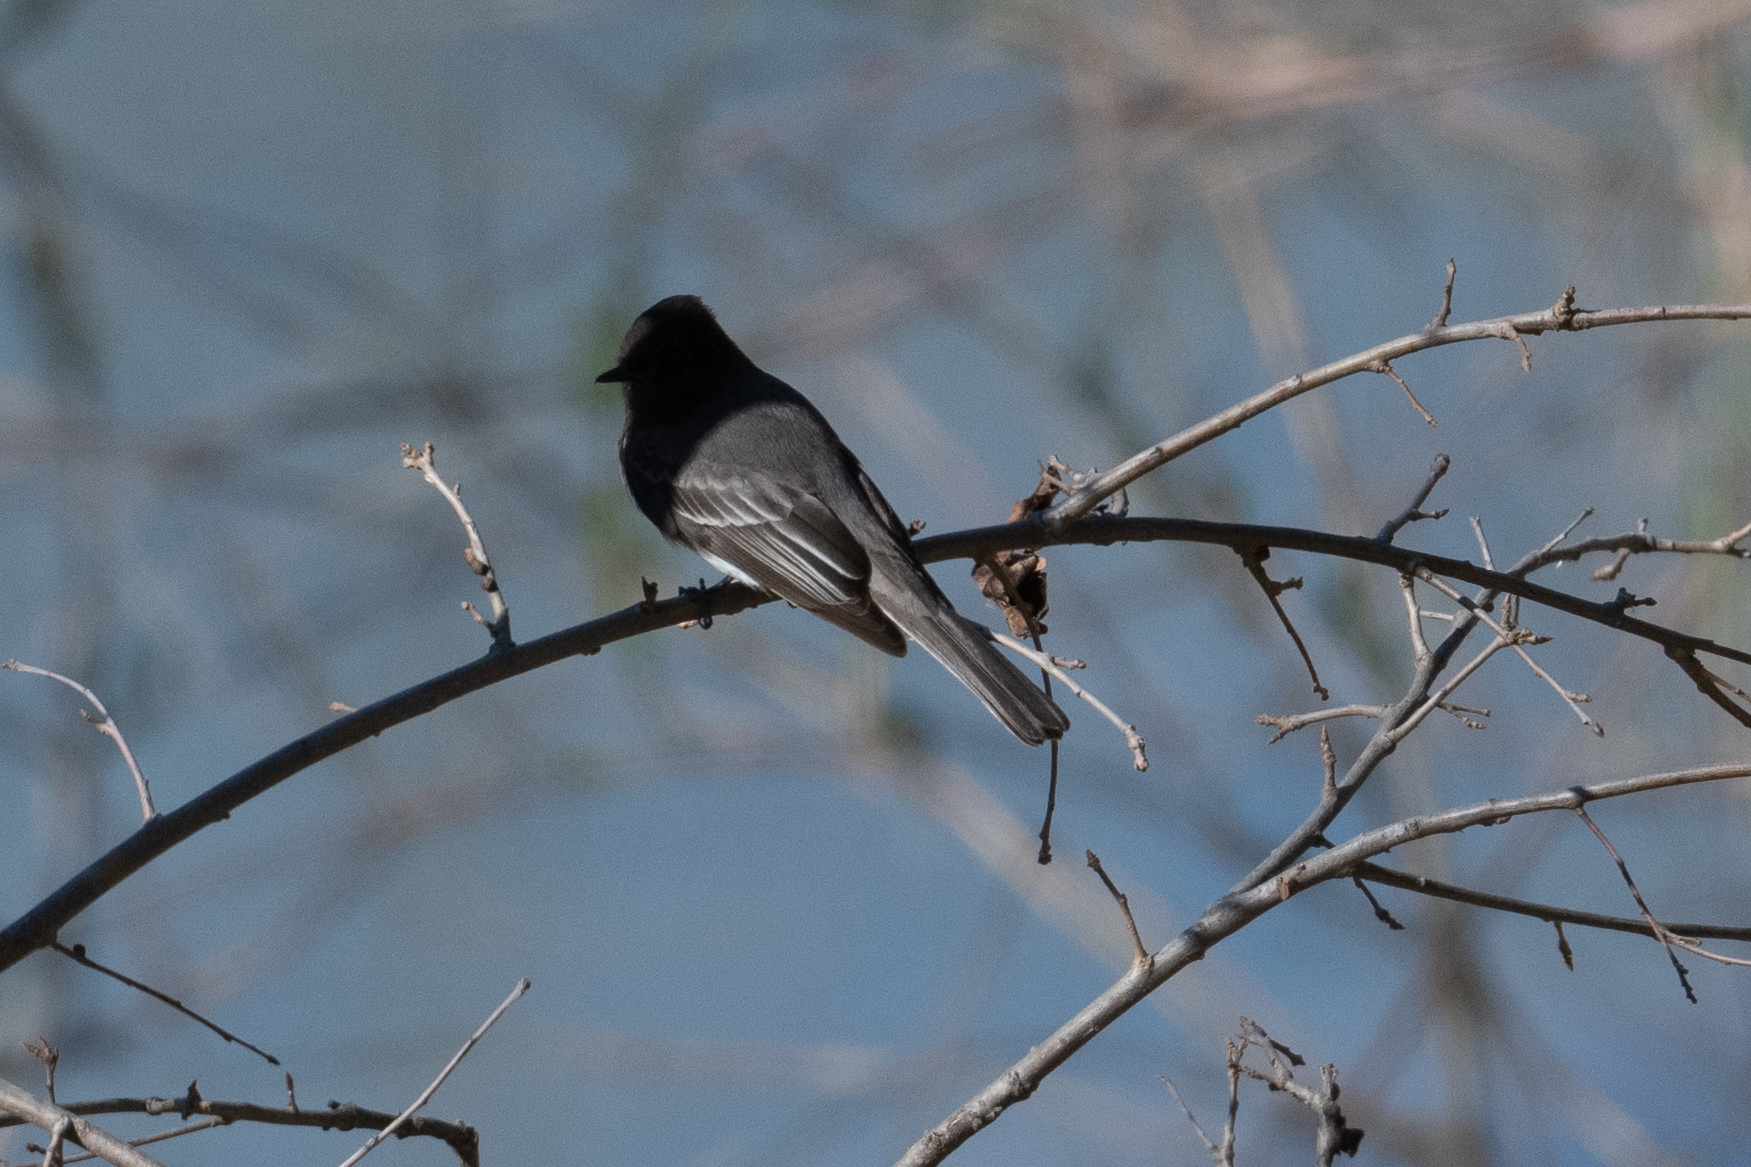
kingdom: Animalia
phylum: Chordata
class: Aves
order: Passeriformes
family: Tyrannidae
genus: Sayornis
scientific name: Sayornis nigricans
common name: Black phoebe
